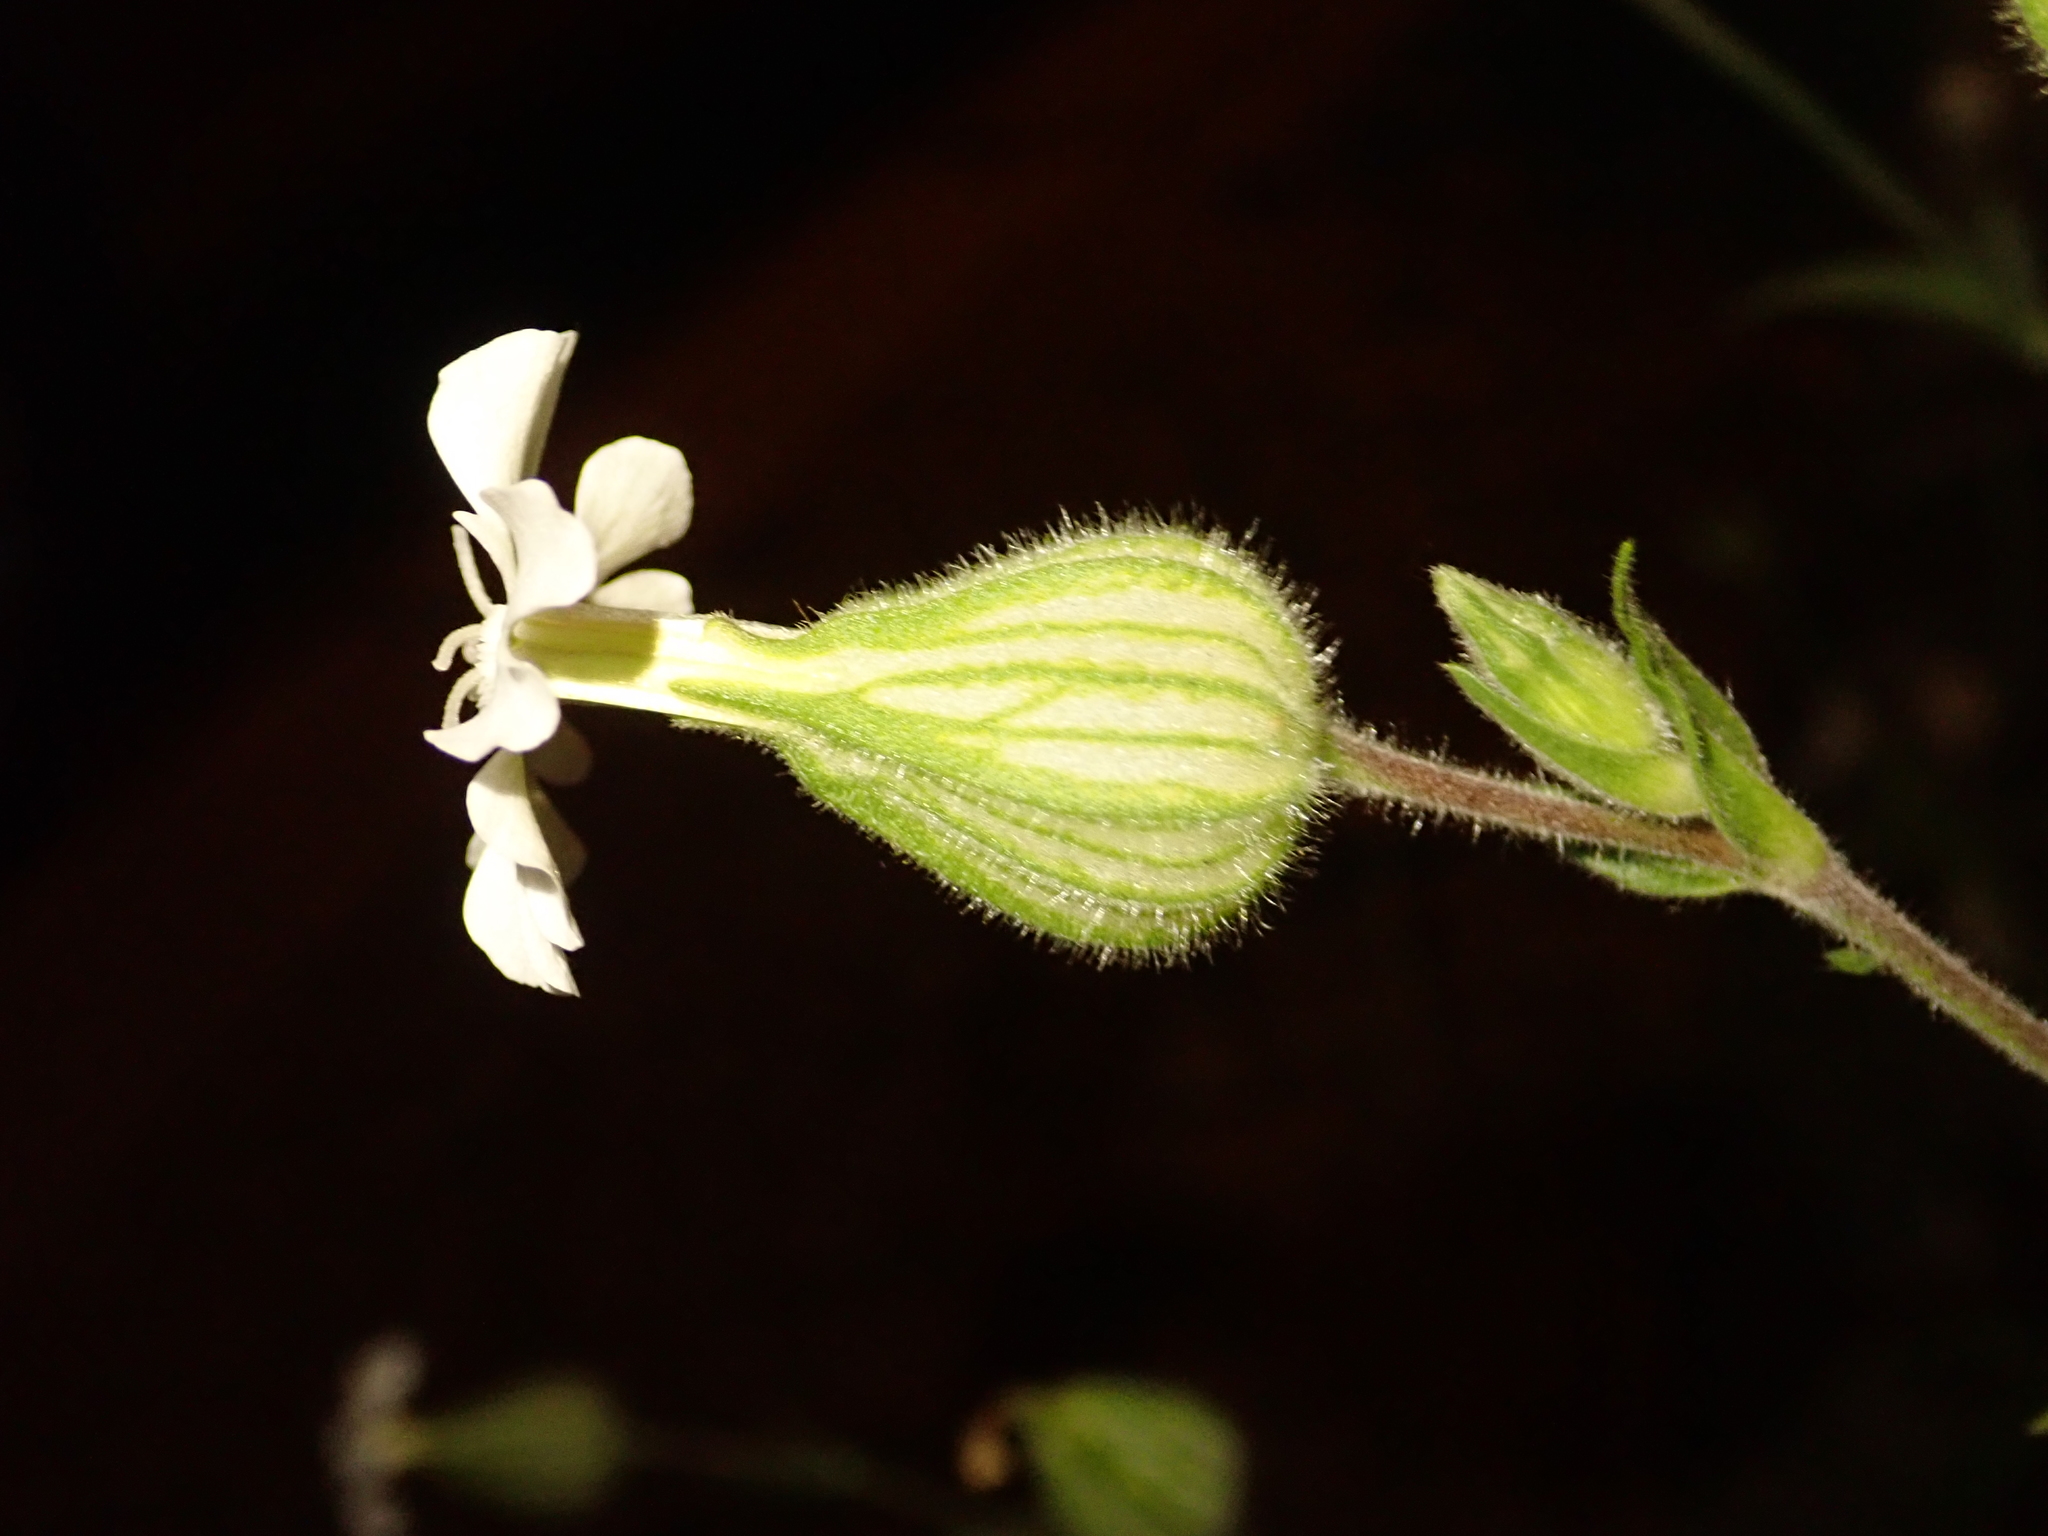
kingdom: Plantae
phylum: Tracheophyta
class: Magnoliopsida
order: Caryophyllales
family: Caryophyllaceae
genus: Silene
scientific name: Silene latifolia
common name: White campion
